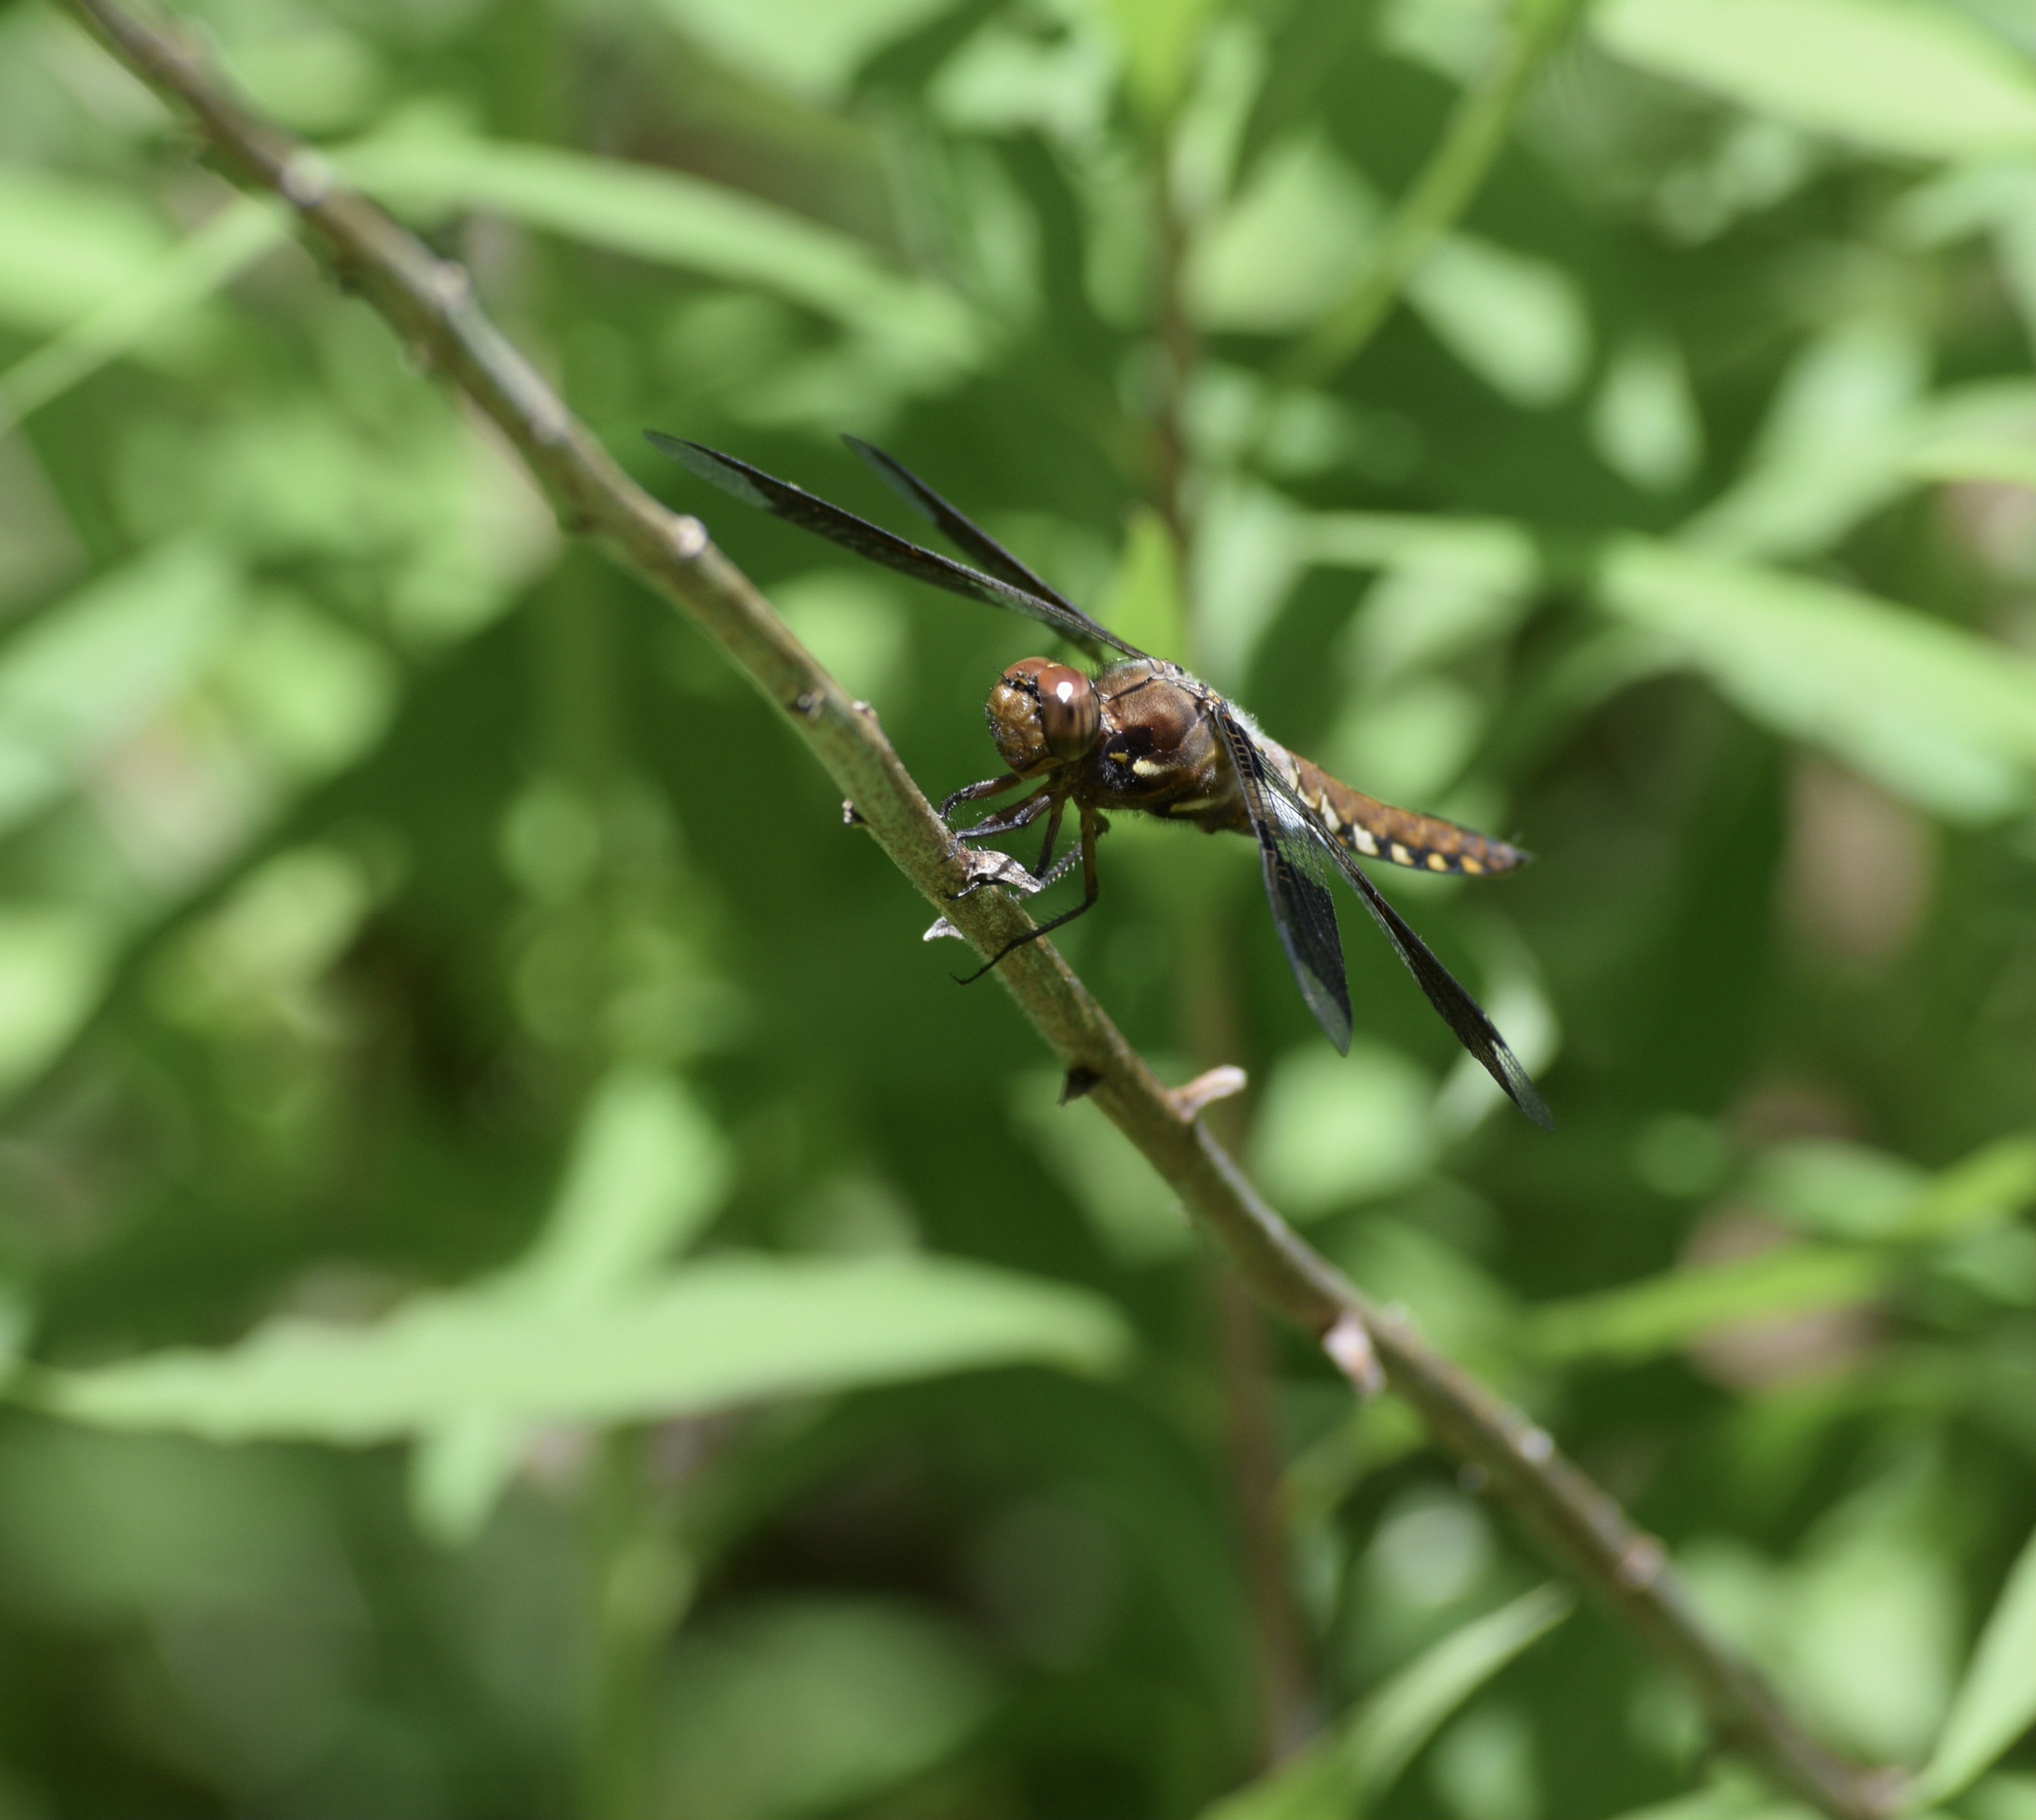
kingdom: Animalia
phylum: Arthropoda
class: Insecta
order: Odonata
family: Libellulidae
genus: Plathemis
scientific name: Plathemis lydia
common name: Common whitetail
